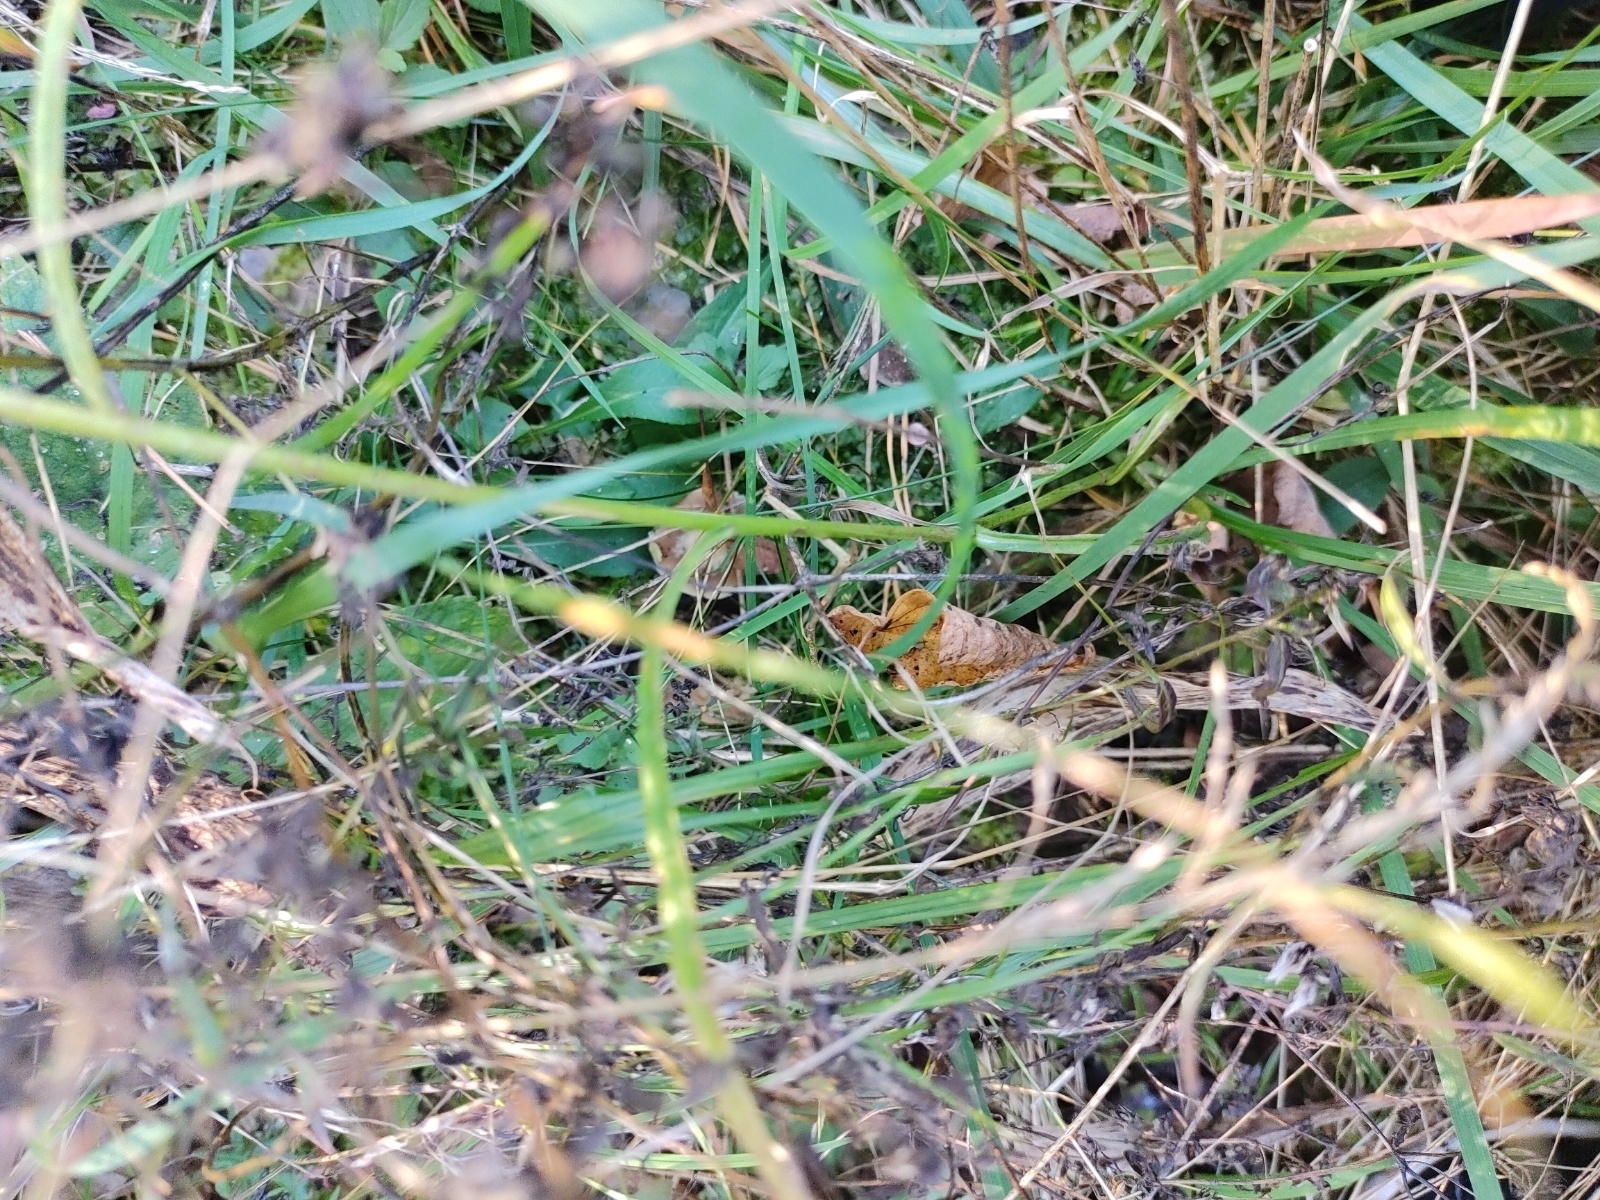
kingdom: Plantae
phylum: Tracheophyta
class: Magnoliopsida
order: Asterales
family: Campanulaceae
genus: Campanula
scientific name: Campanula persicifolia
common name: Peach-leaved bellflower
